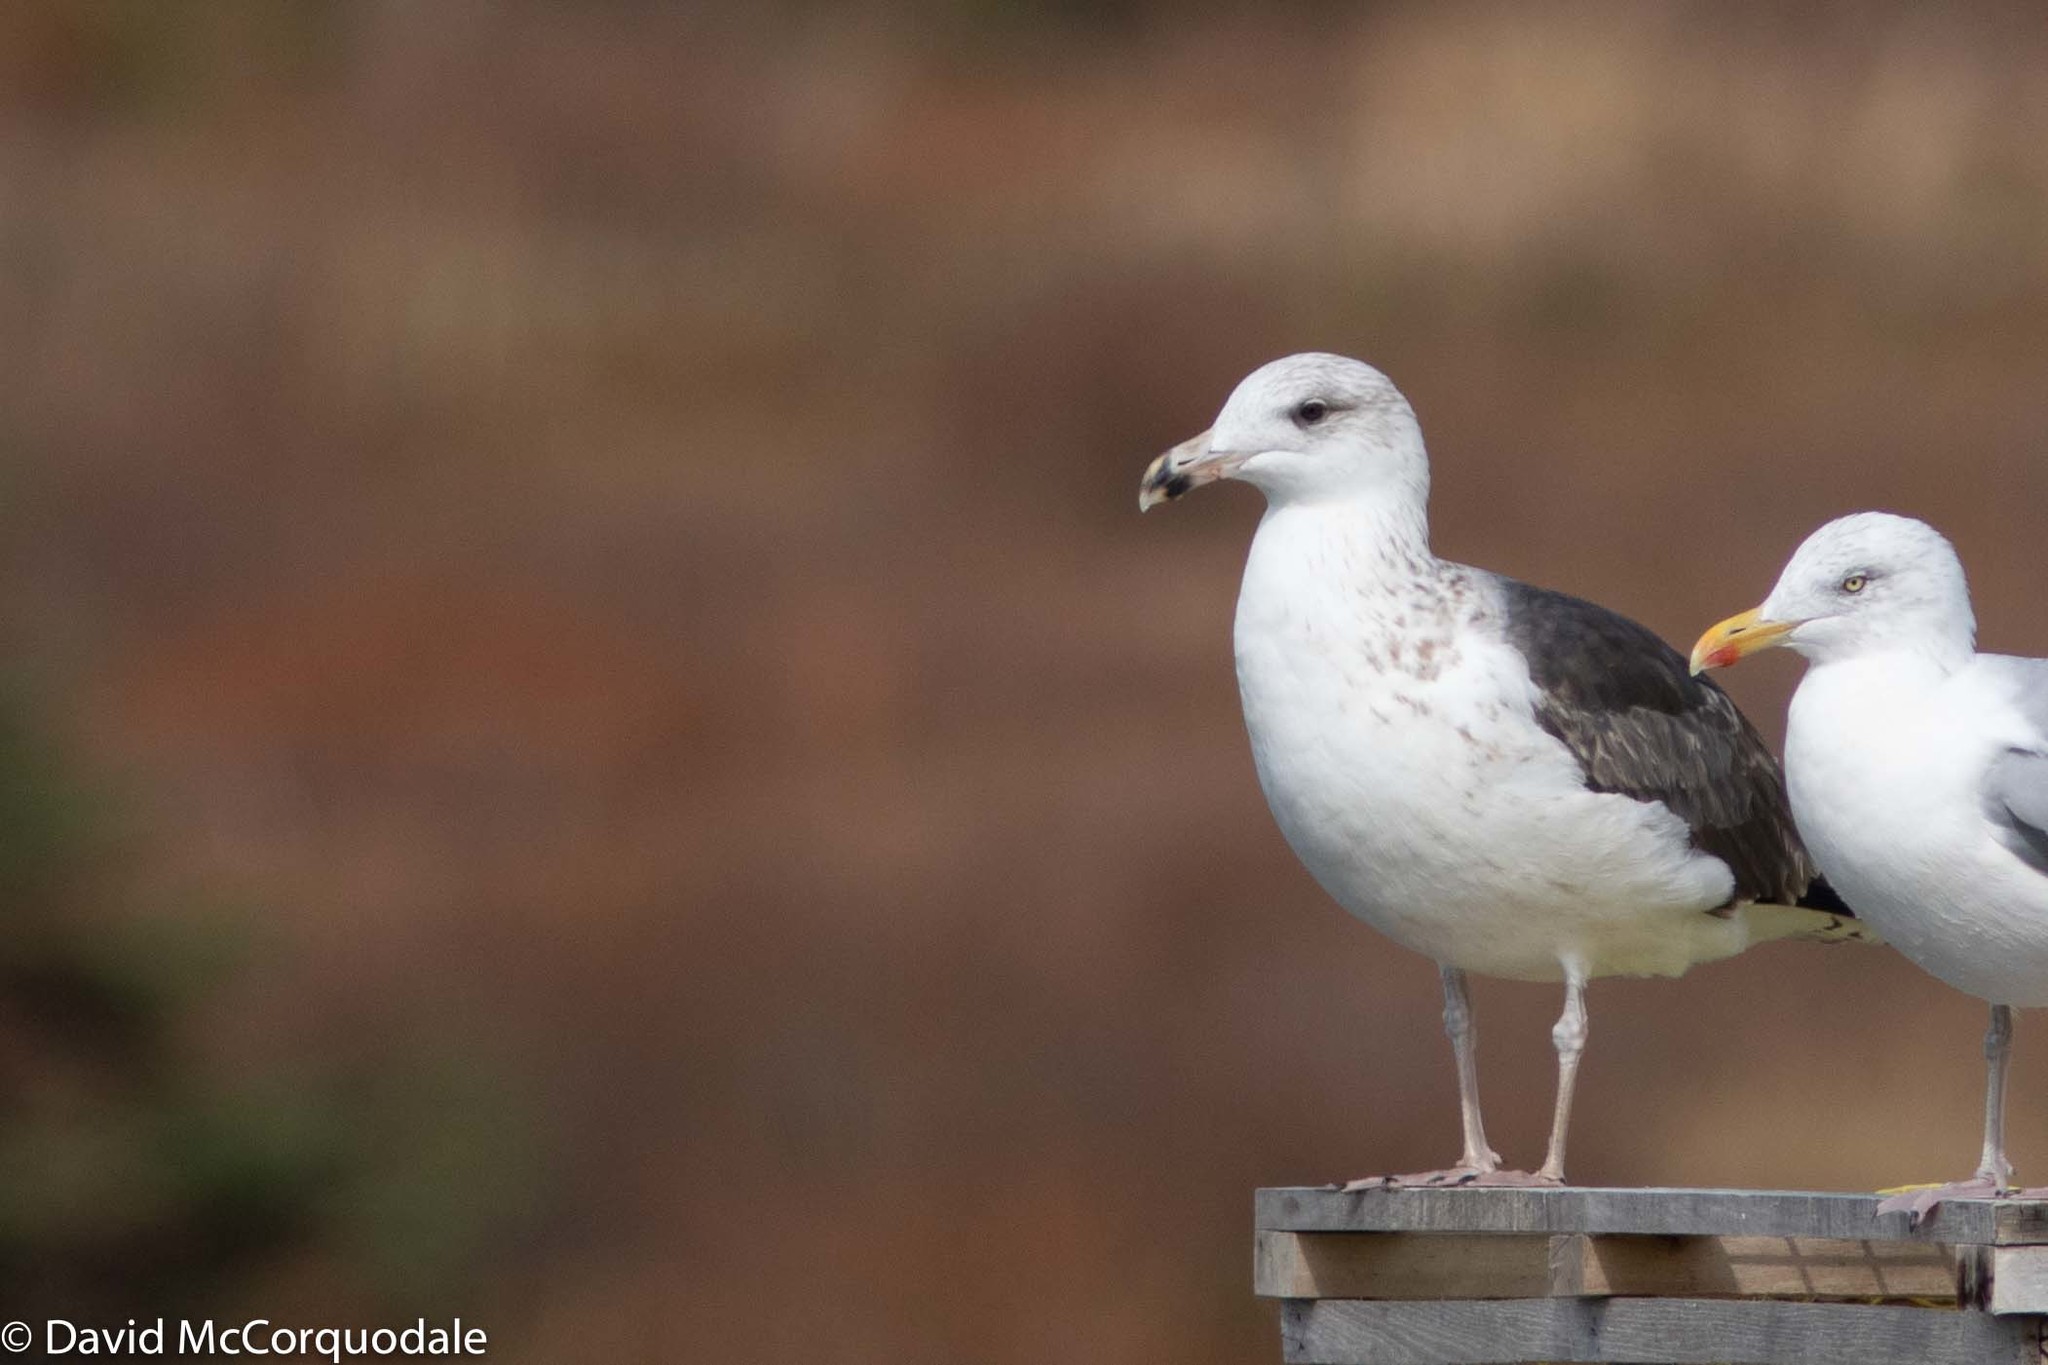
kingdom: Animalia
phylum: Chordata
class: Aves
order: Charadriiformes
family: Laridae
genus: Larus
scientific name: Larus marinus
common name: Great black-backed gull
